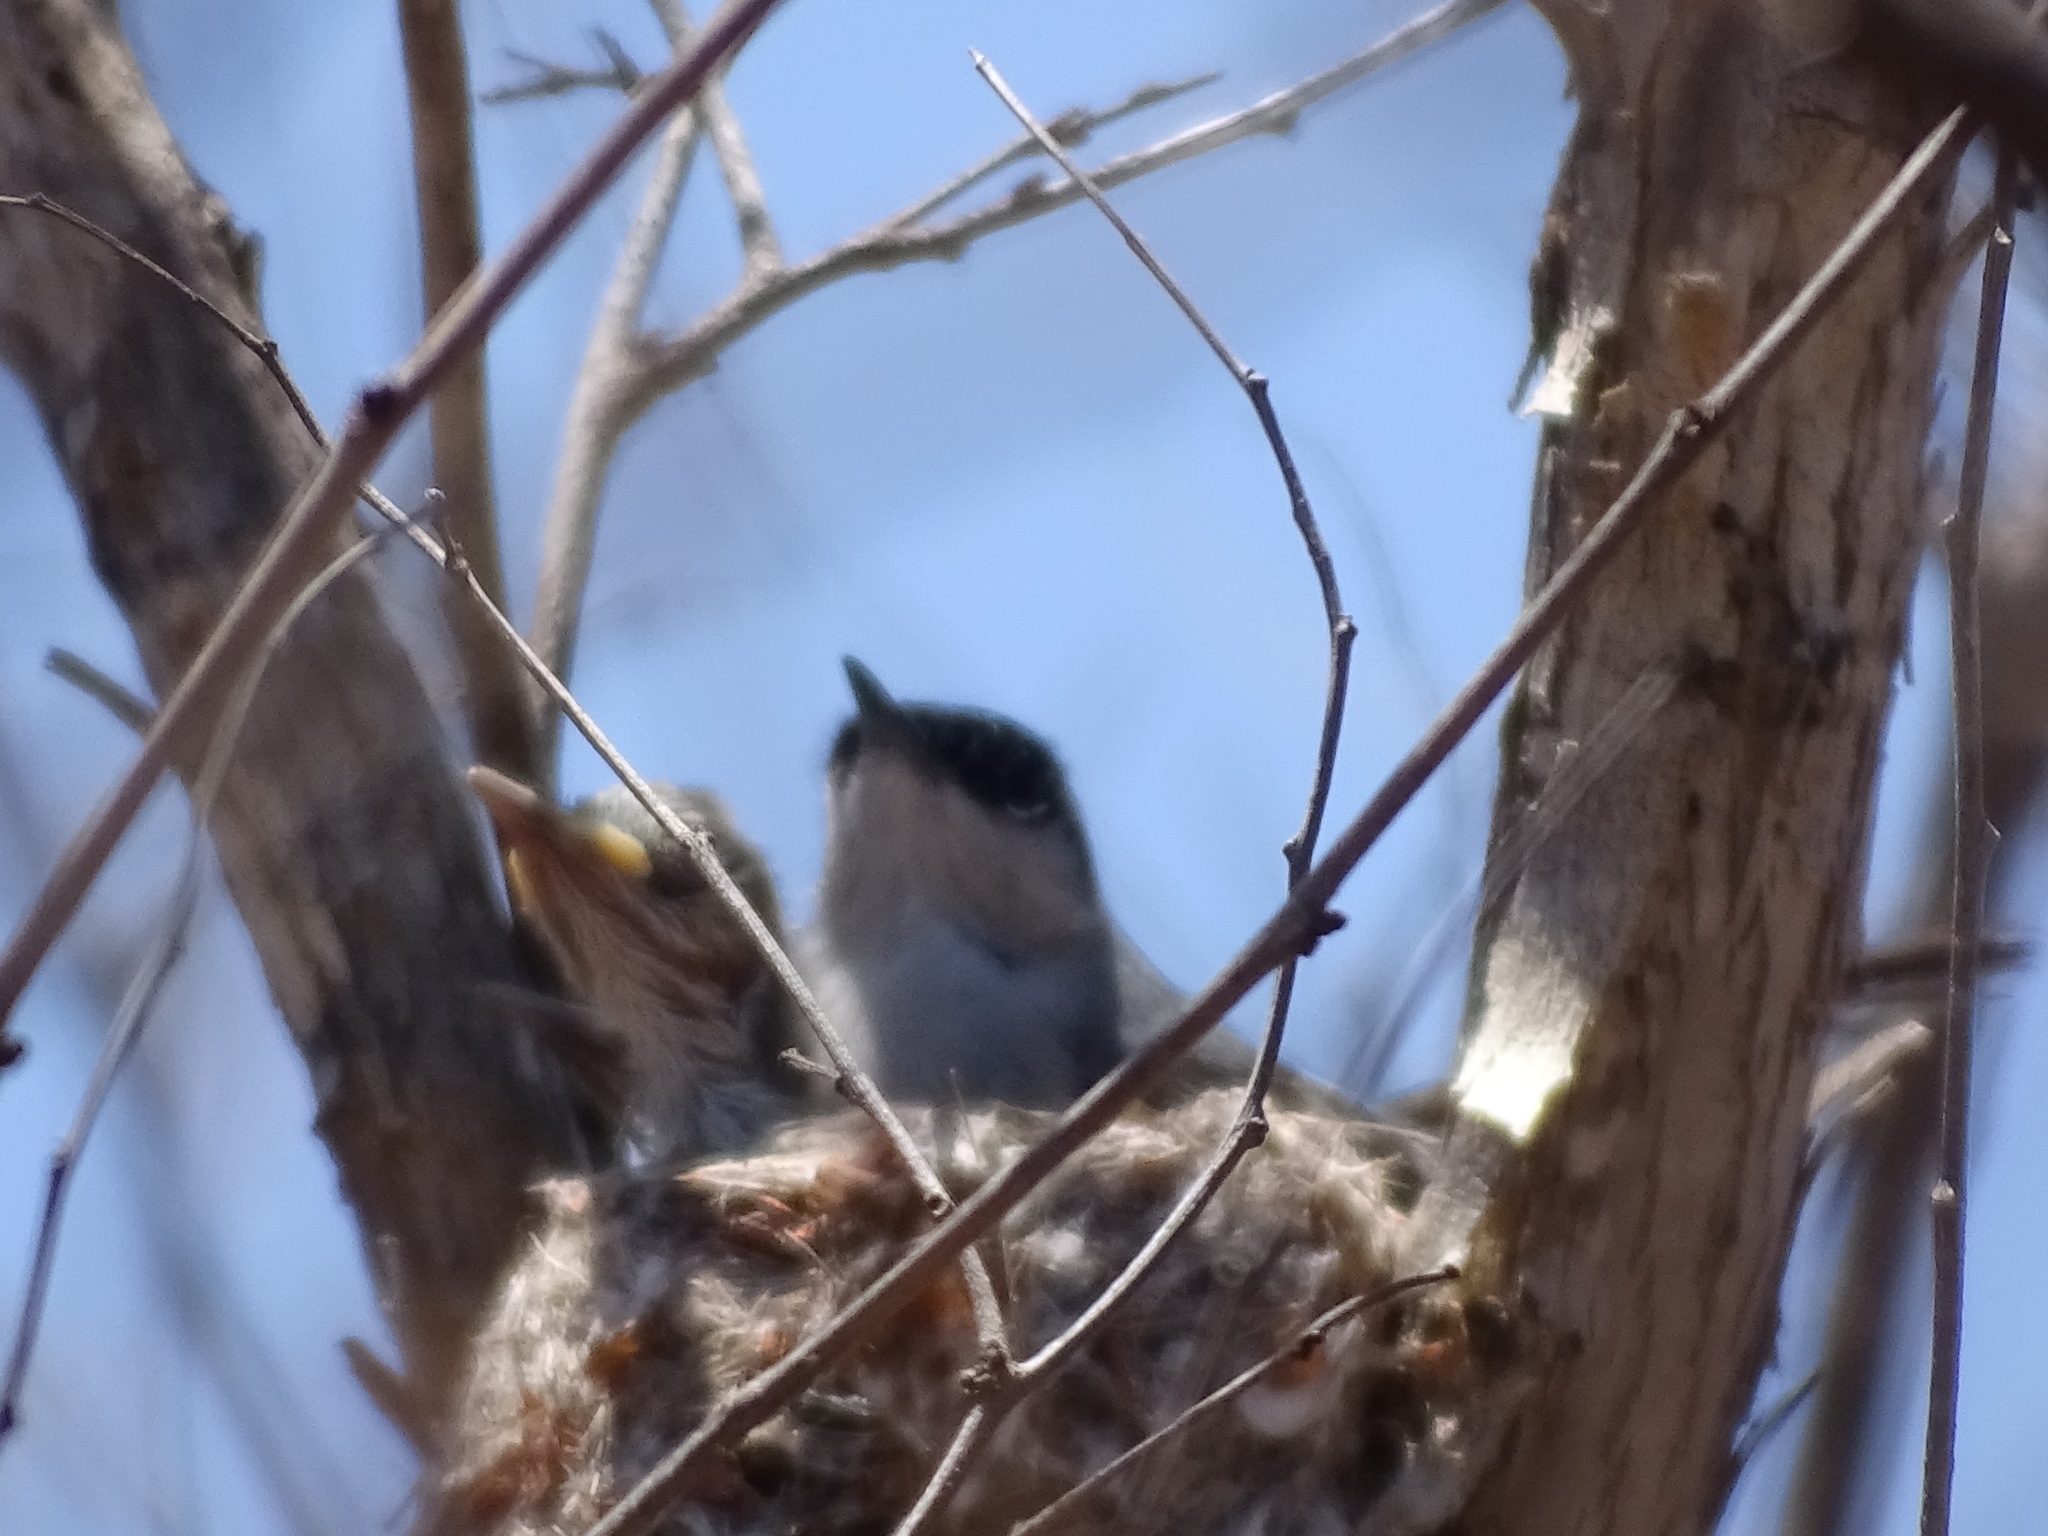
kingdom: Animalia
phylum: Chordata
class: Aves
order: Passeriformes
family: Polioptilidae
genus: Polioptila
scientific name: Polioptila nigriceps
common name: Black-capped gnatcatcher
